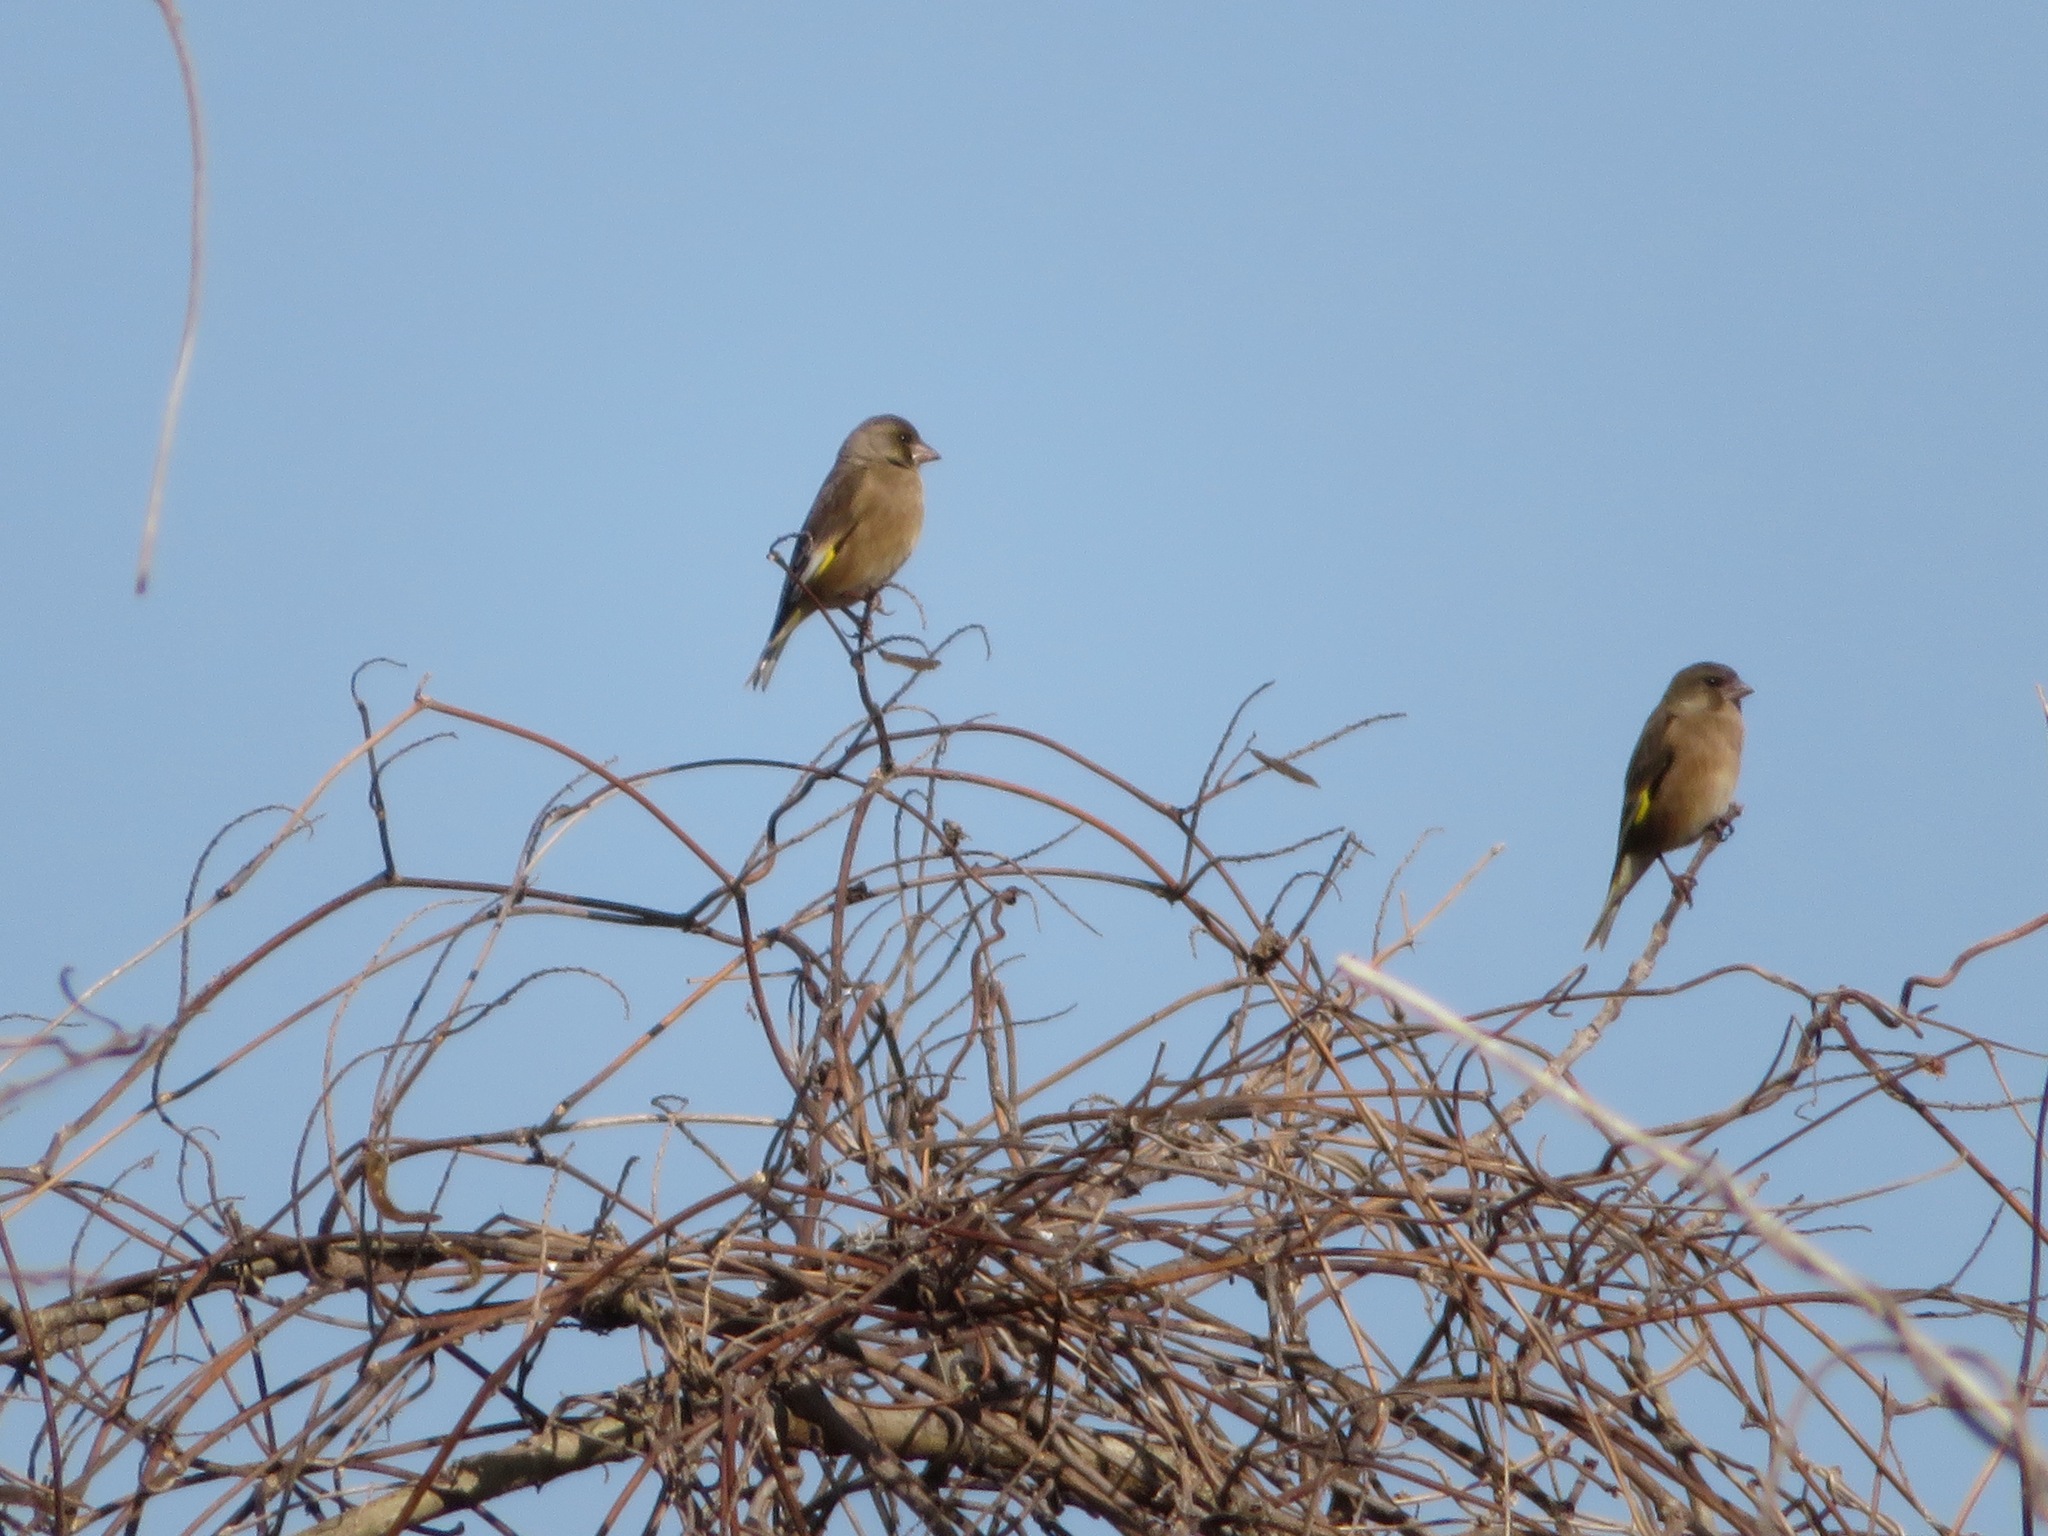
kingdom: Plantae
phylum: Tracheophyta
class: Liliopsida
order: Poales
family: Poaceae
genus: Chloris
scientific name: Chloris sinica
